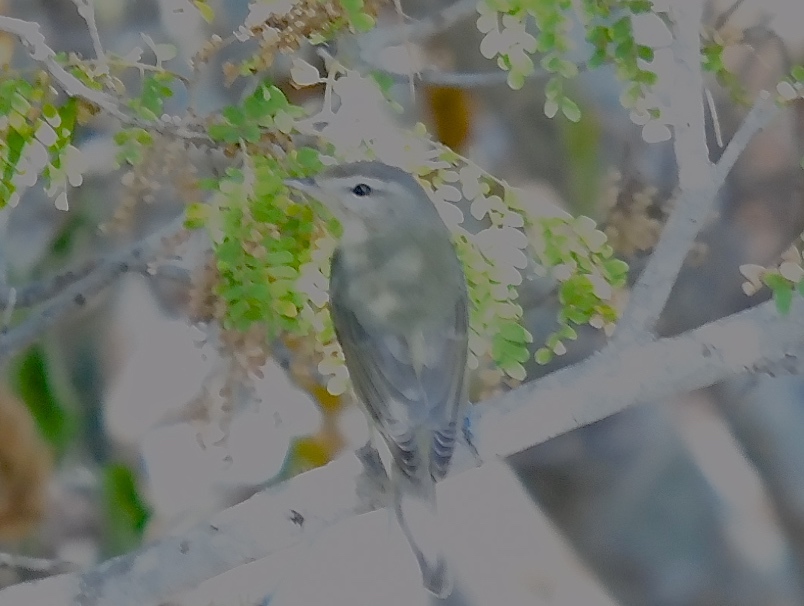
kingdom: Animalia
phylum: Chordata
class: Aves
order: Passeriformes
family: Vireonidae
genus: Vireo
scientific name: Vireo gilvus
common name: Warbling vireo
